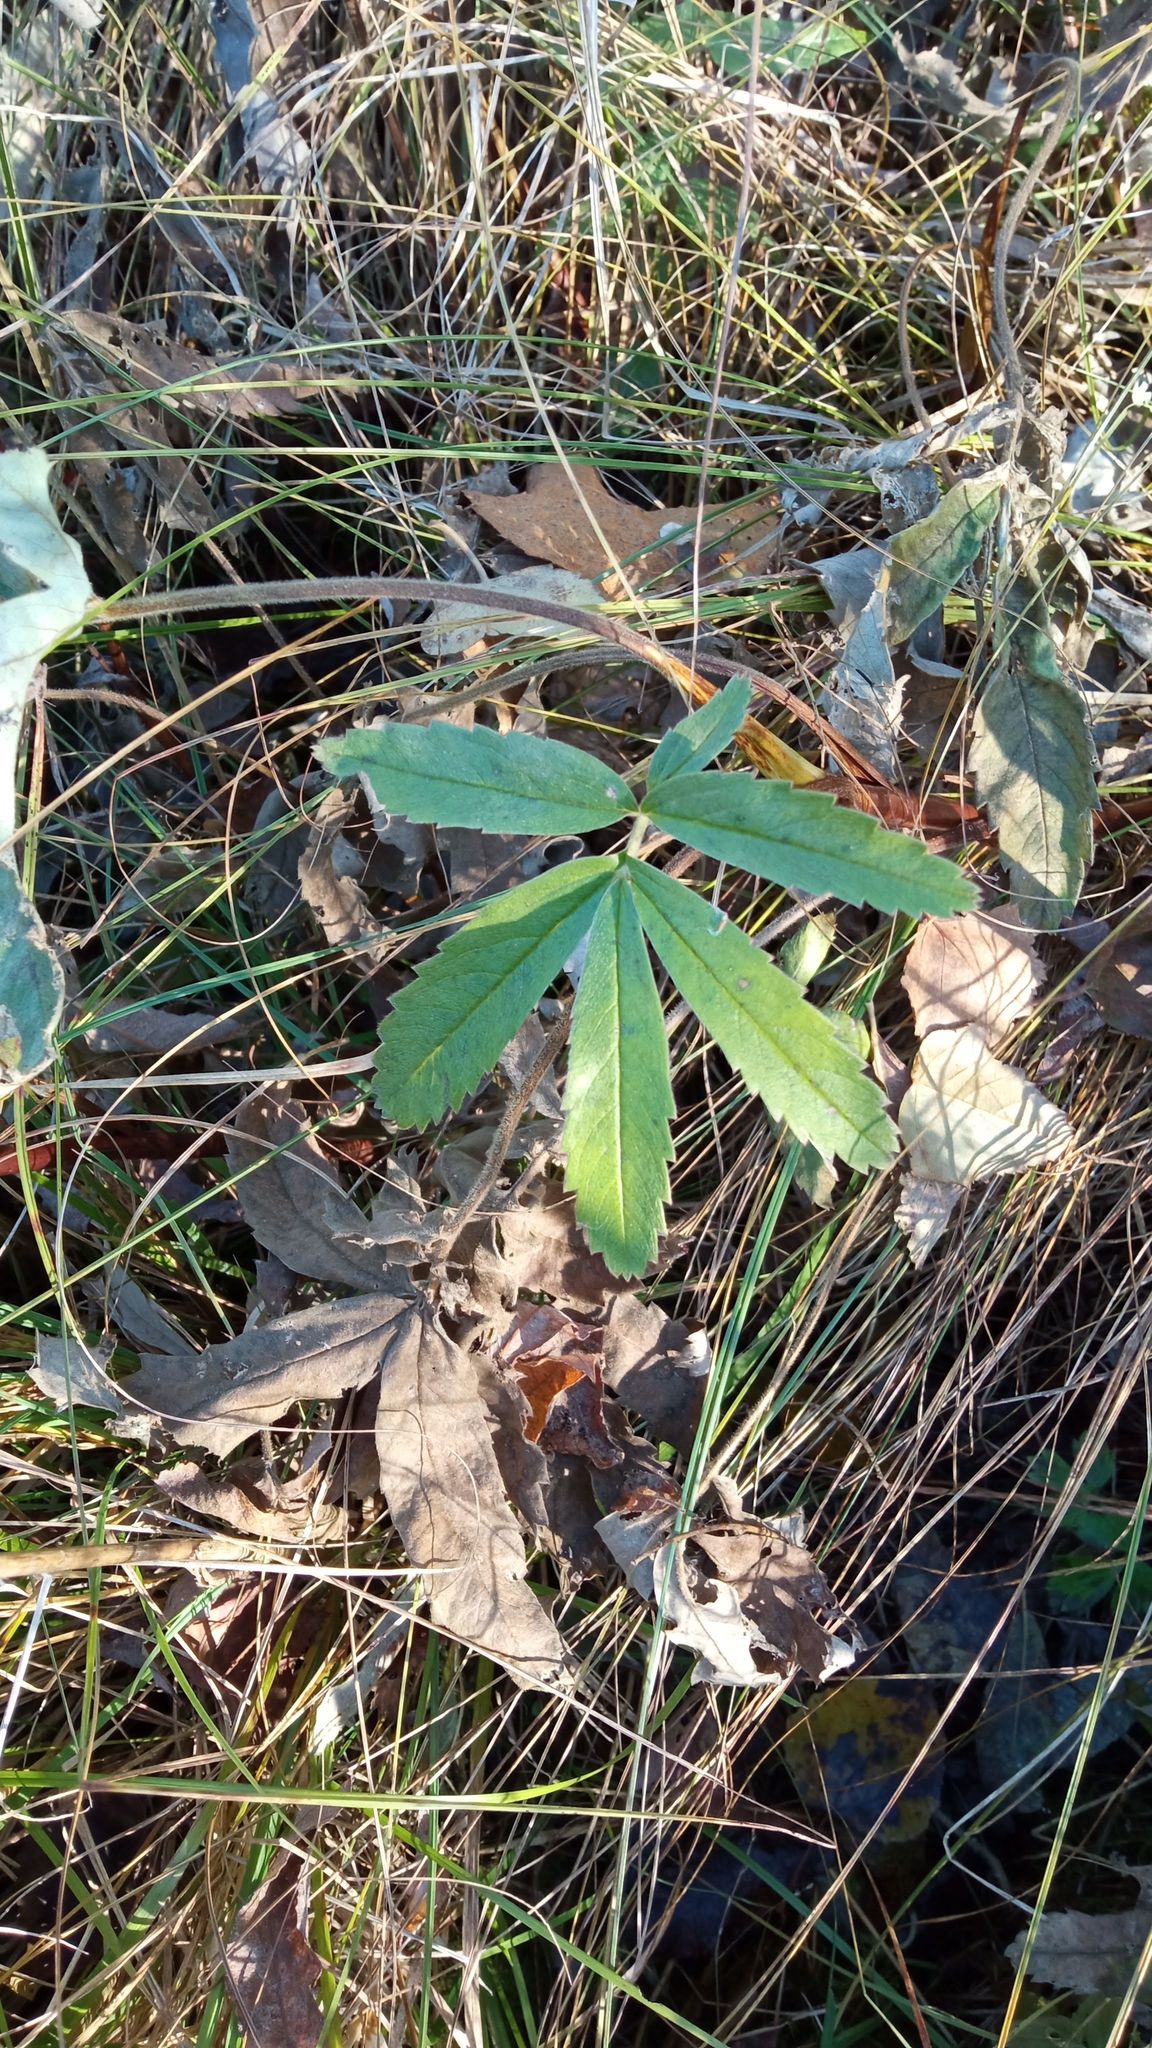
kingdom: Plantae
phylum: Tracheophyta
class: Magnoliopsida
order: Rosales
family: Rosaceae
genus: Comarum
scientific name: Comarum palustre
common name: Marsh cinquefoil
